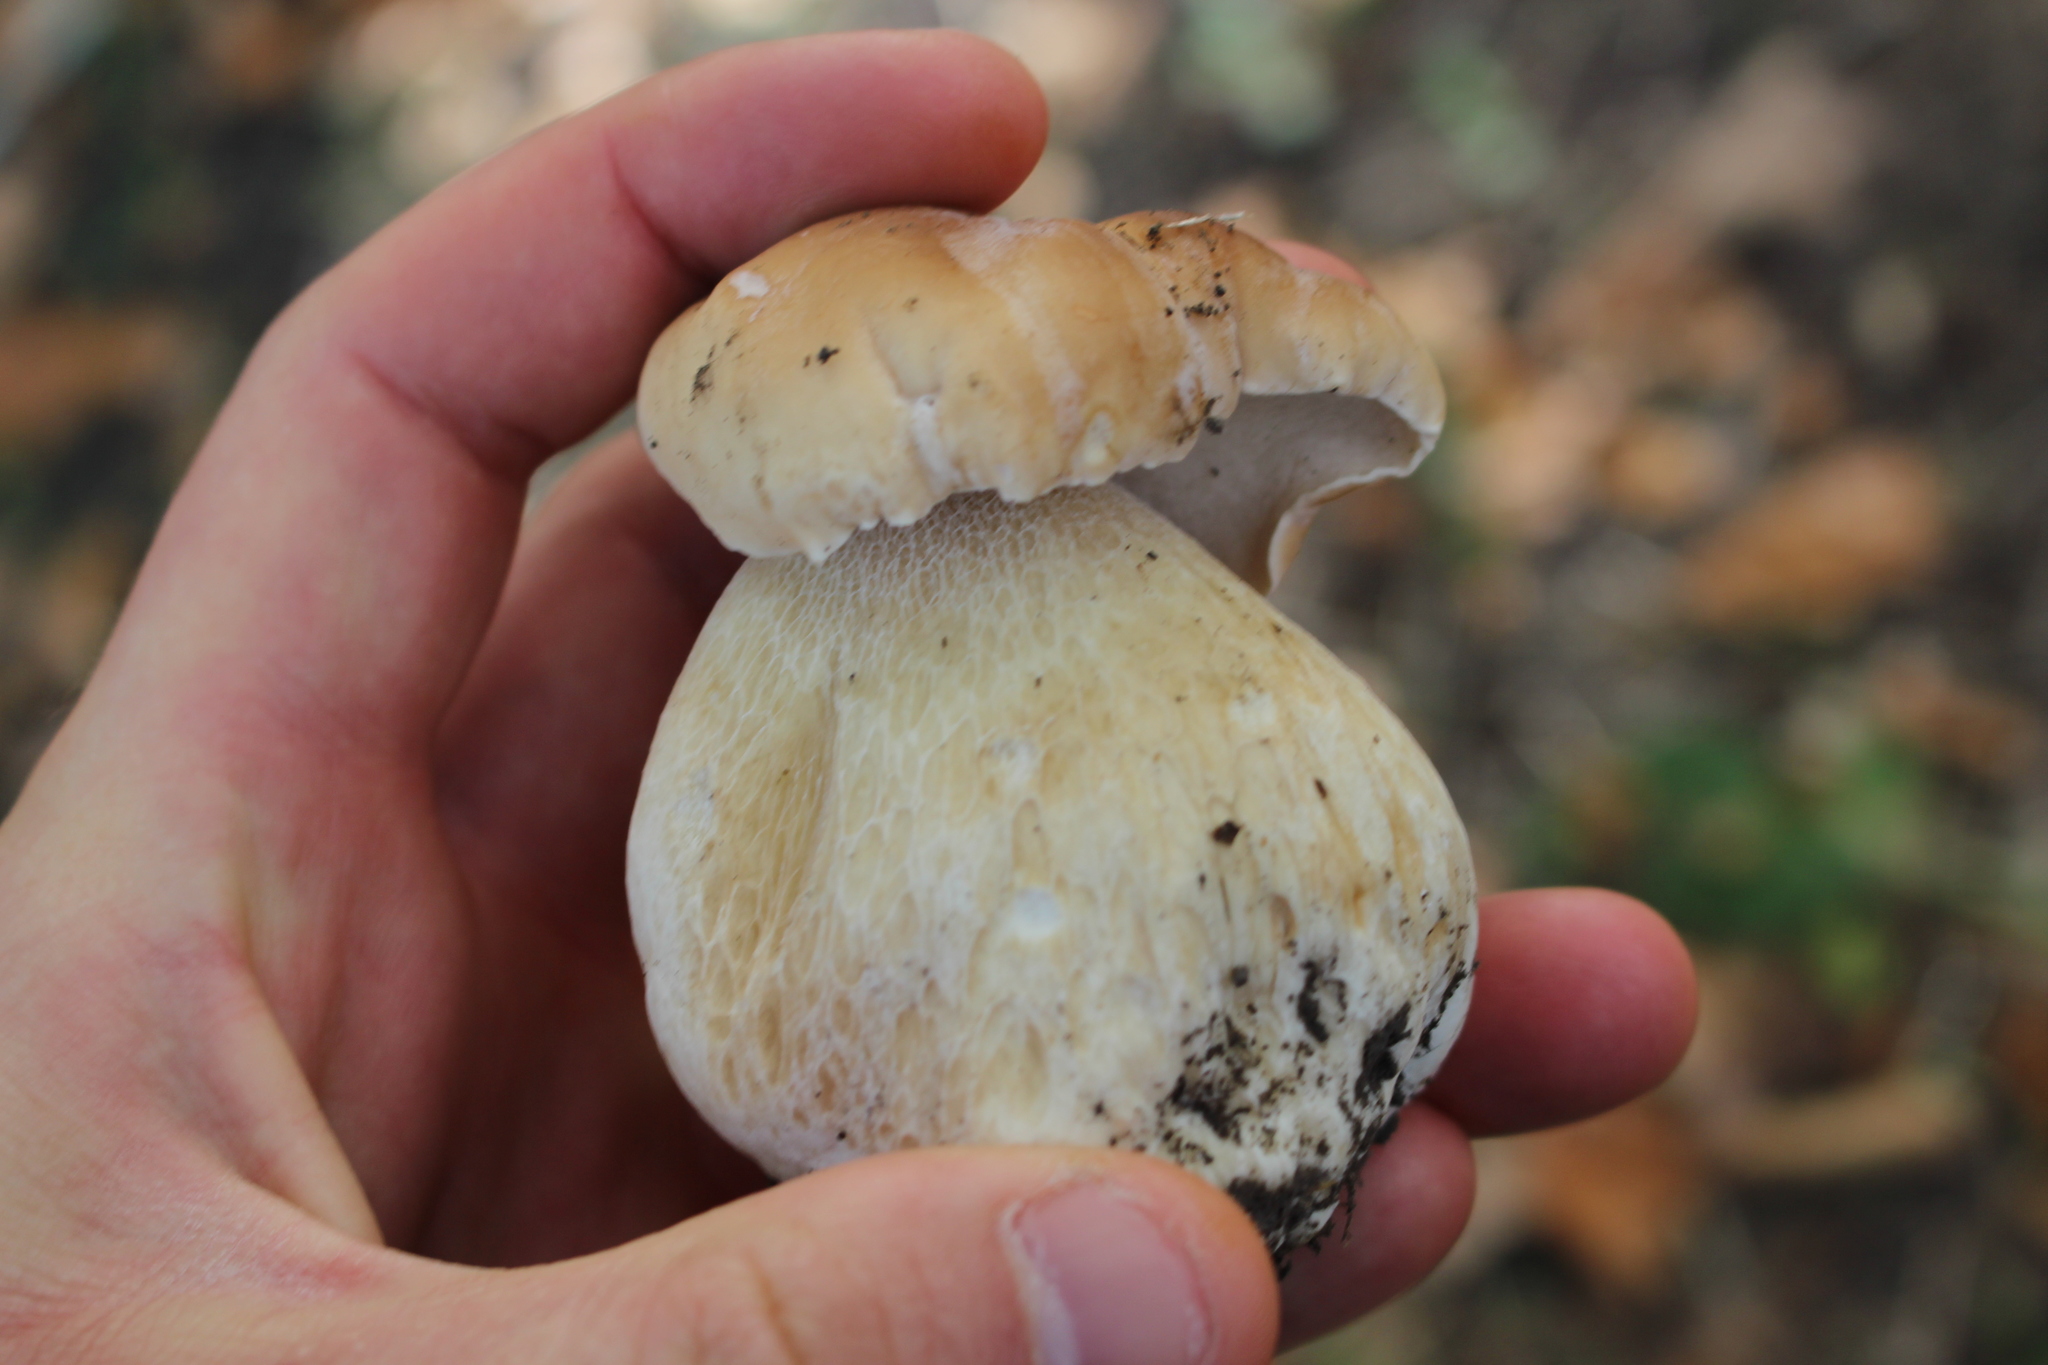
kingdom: Fungi
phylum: Basidiomycota
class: Agaricomycetes
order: Boletales
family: Boletaceae
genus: Boletus
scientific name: Boletus edulis
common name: Cep
